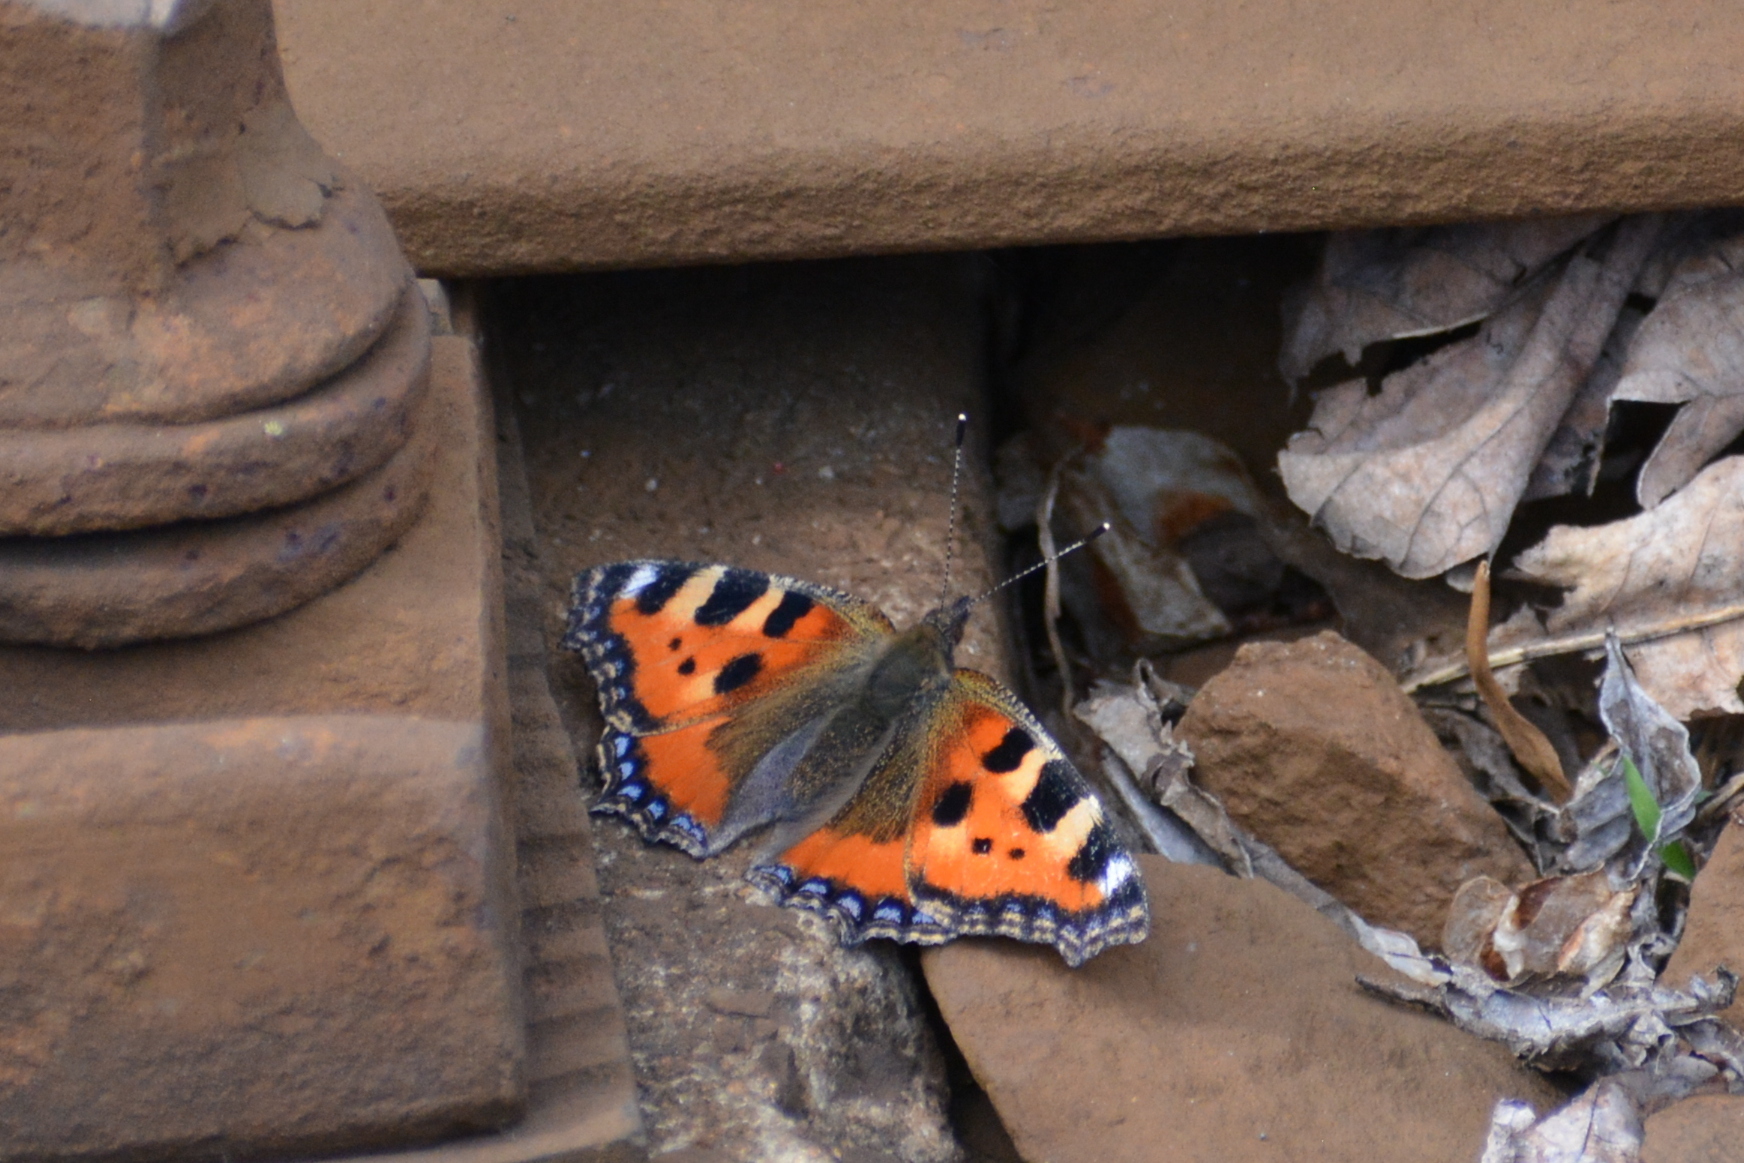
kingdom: Animalia
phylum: Arthropoda
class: Insecta
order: Lepidoptera
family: Nymphalidae
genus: Aglais
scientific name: Aglais urticae
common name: Small tortoiseshell
